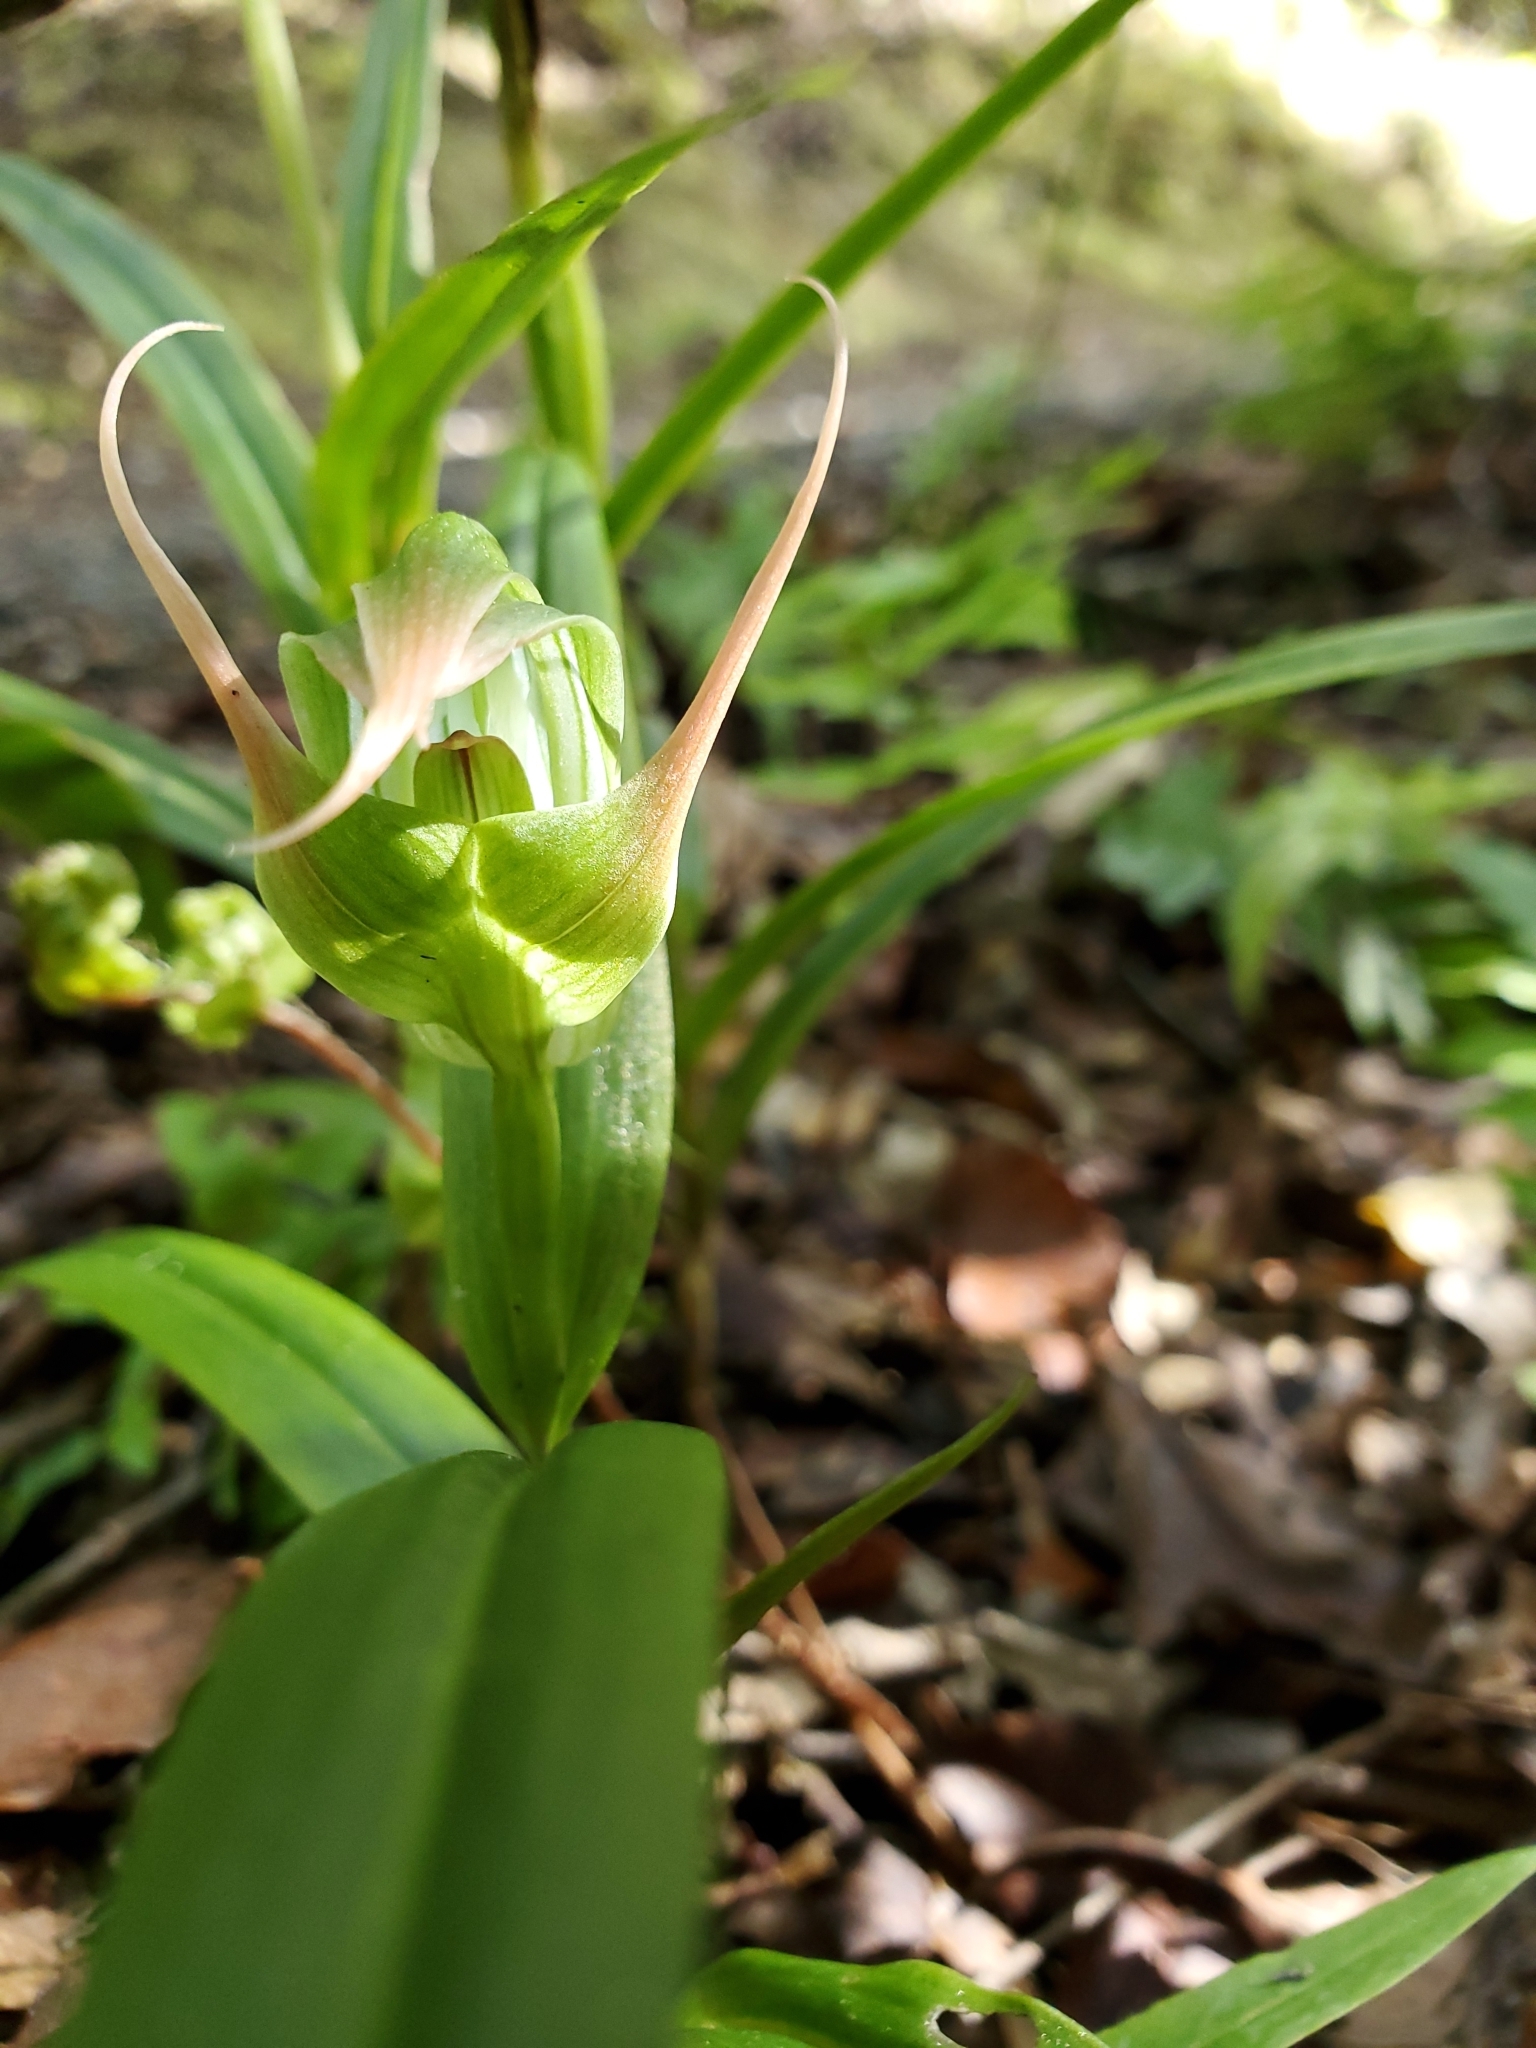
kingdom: Plantae
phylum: Tracheophyta
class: Liliopsida
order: Asparagales
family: Orchidaceae
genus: Pterostylis
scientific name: Pterostylis banksii
